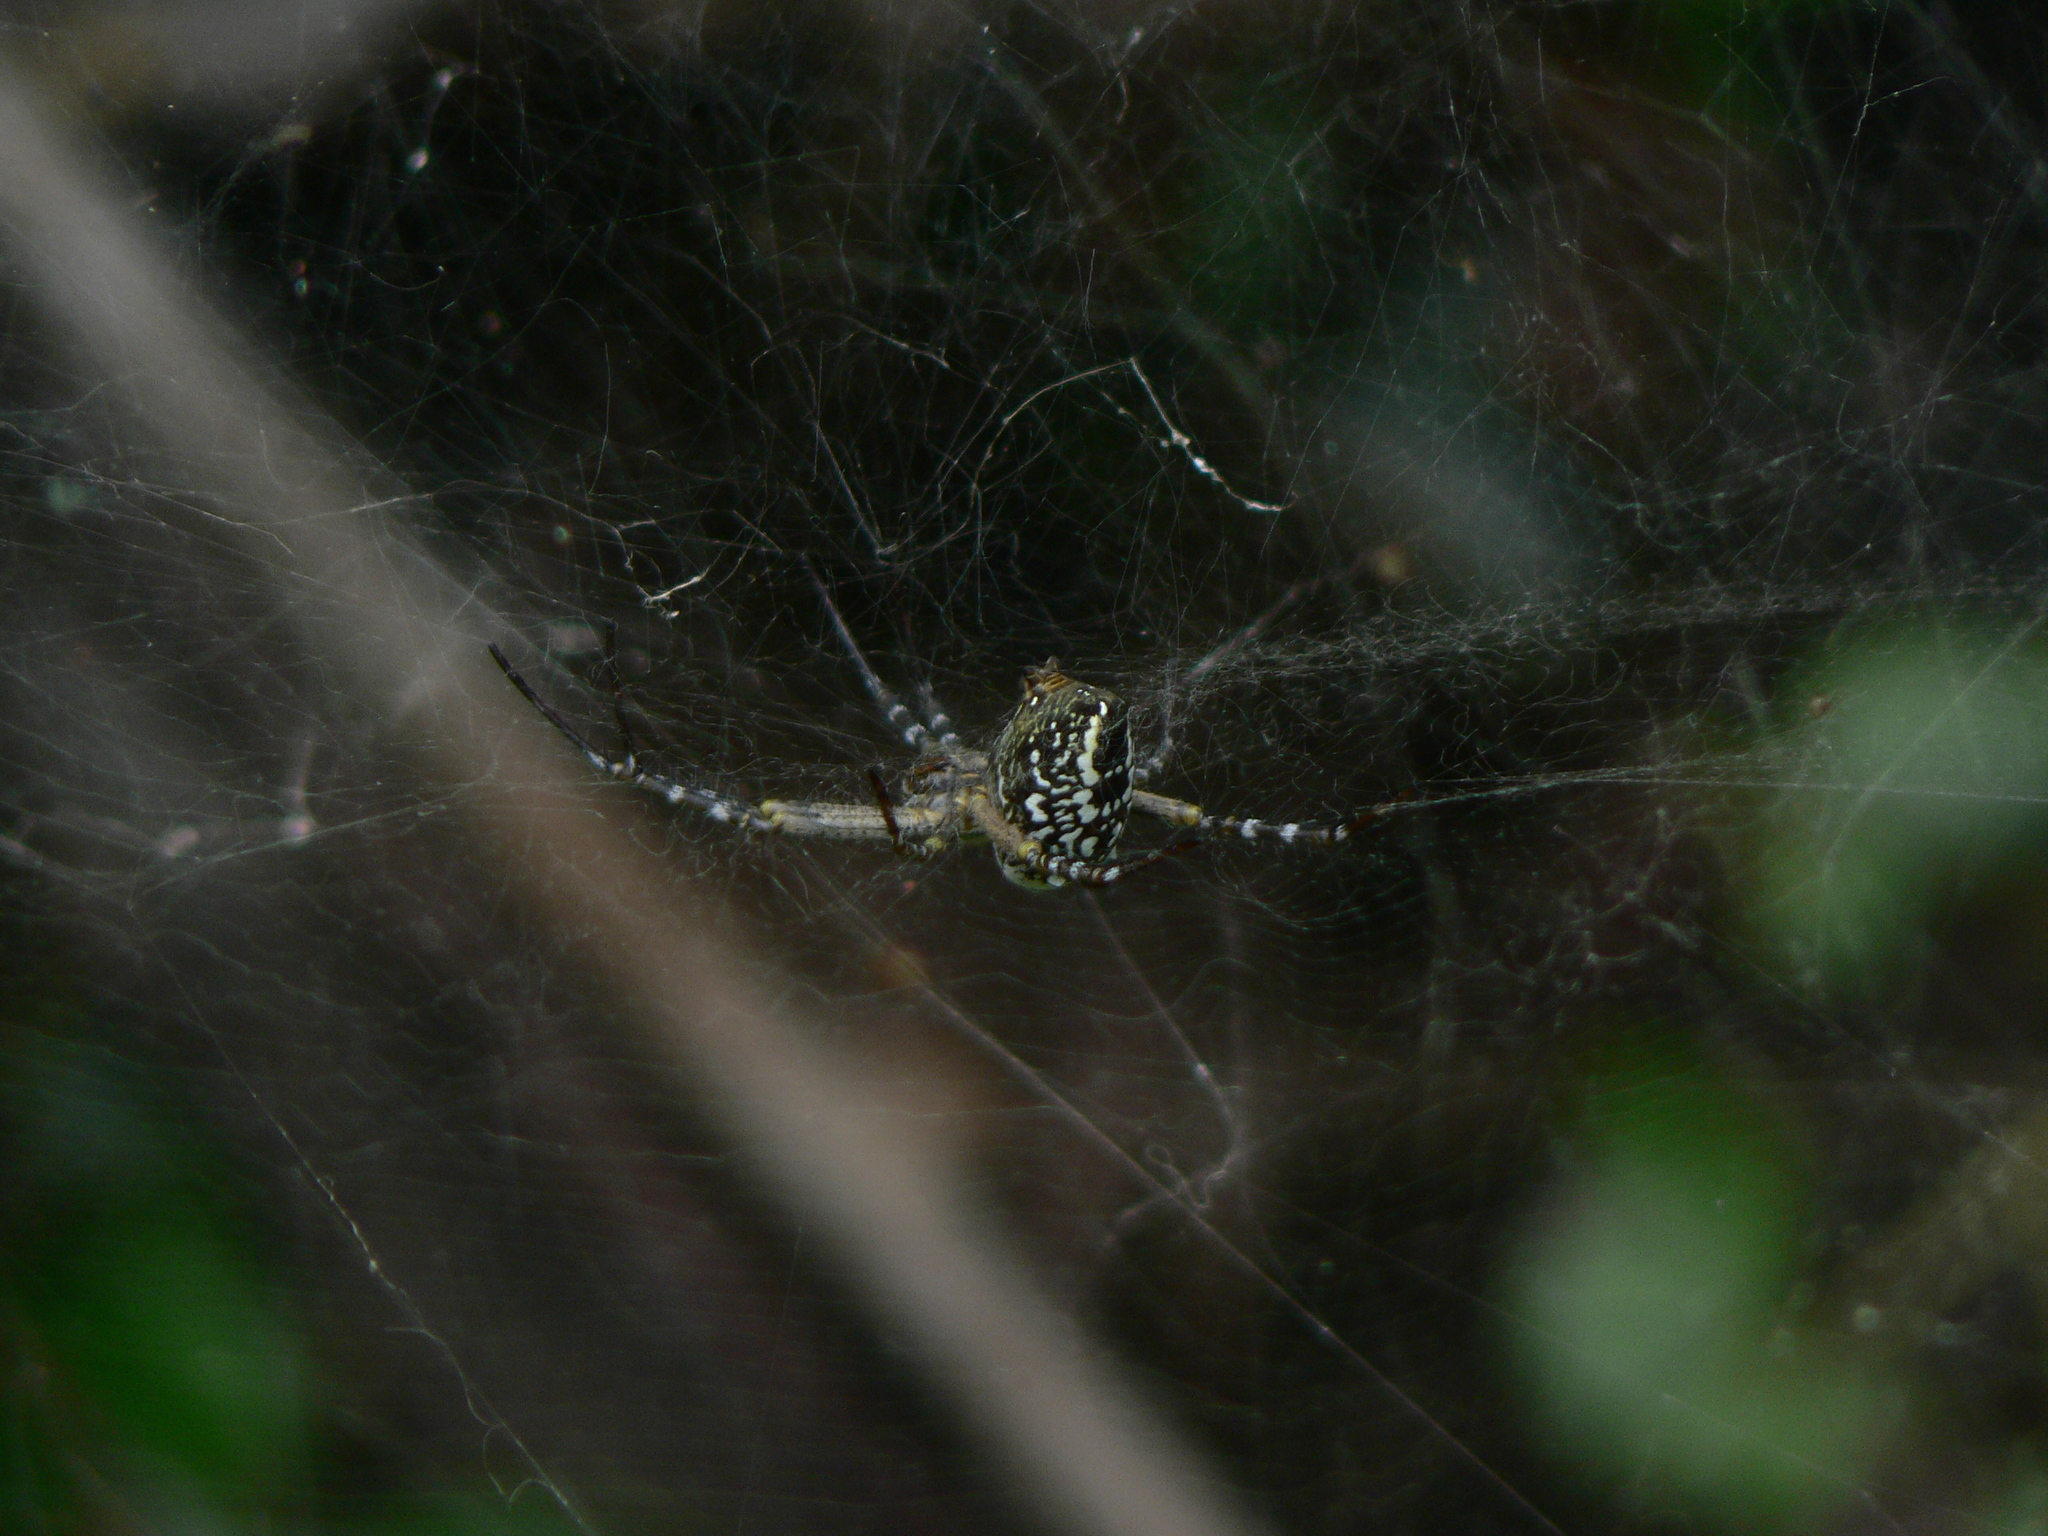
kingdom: Chromista
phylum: Ochrophyta
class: Dictyochophyceae
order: Pedinellales
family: Cyrtophoraceae
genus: Cyrtophora
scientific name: Cyrtophora moluccensis
